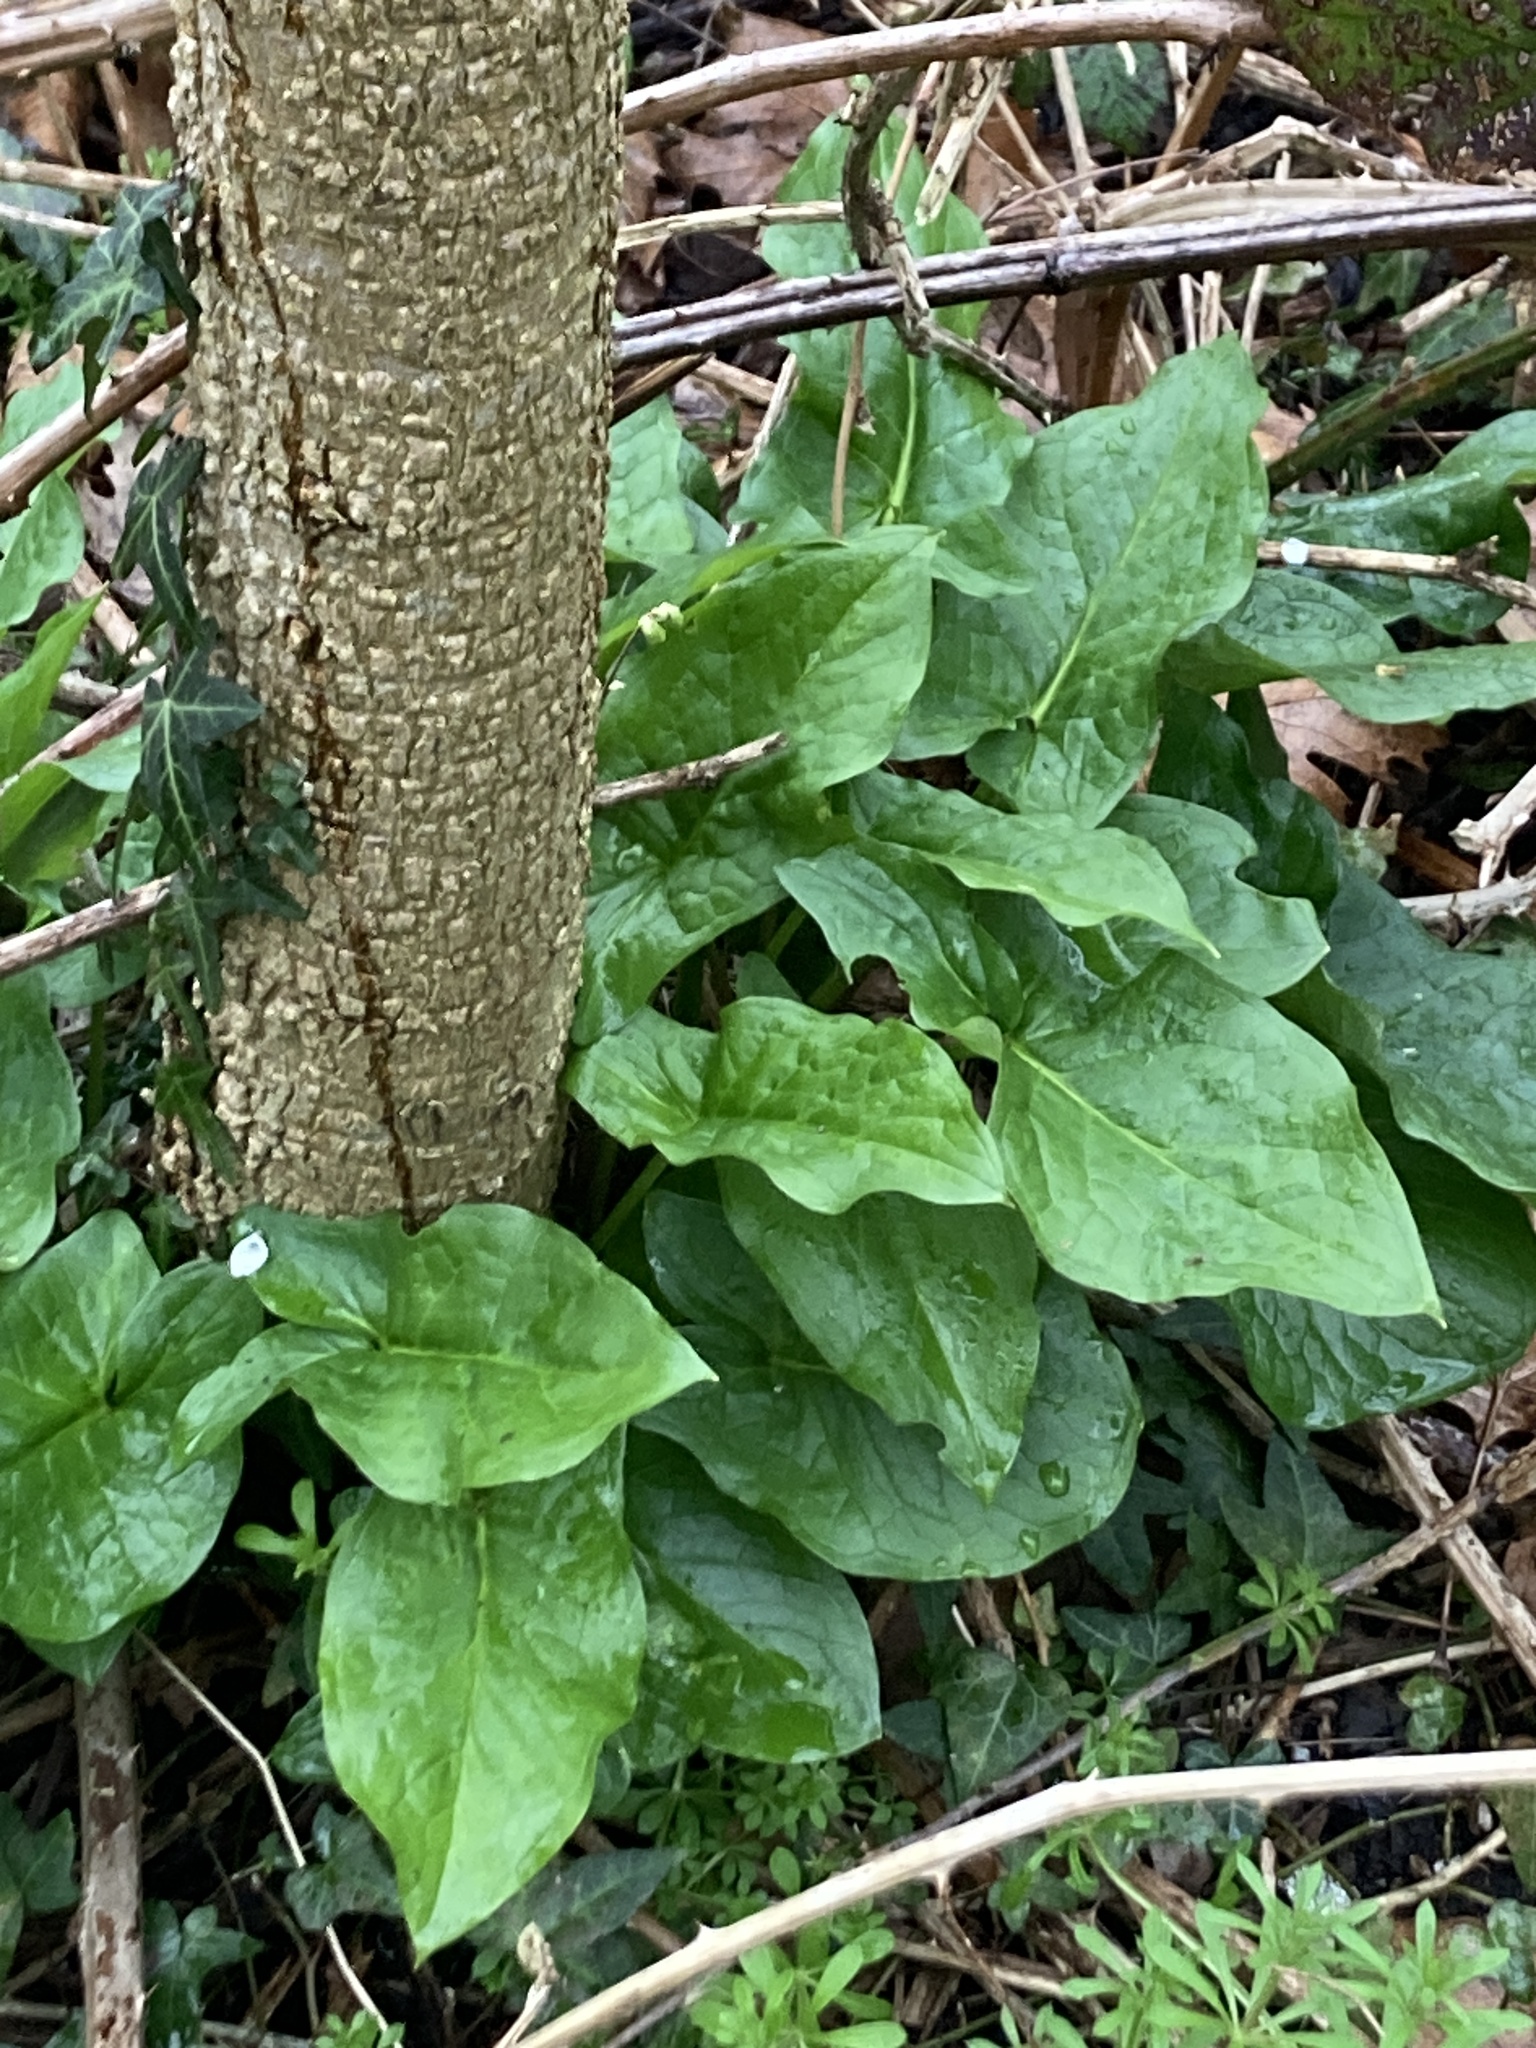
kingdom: Plantae
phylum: Tracheophyta
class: Liliopsida
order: Alismatales
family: Araceae
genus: Arum
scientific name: Arum maculatum
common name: Lords-and-ladies
